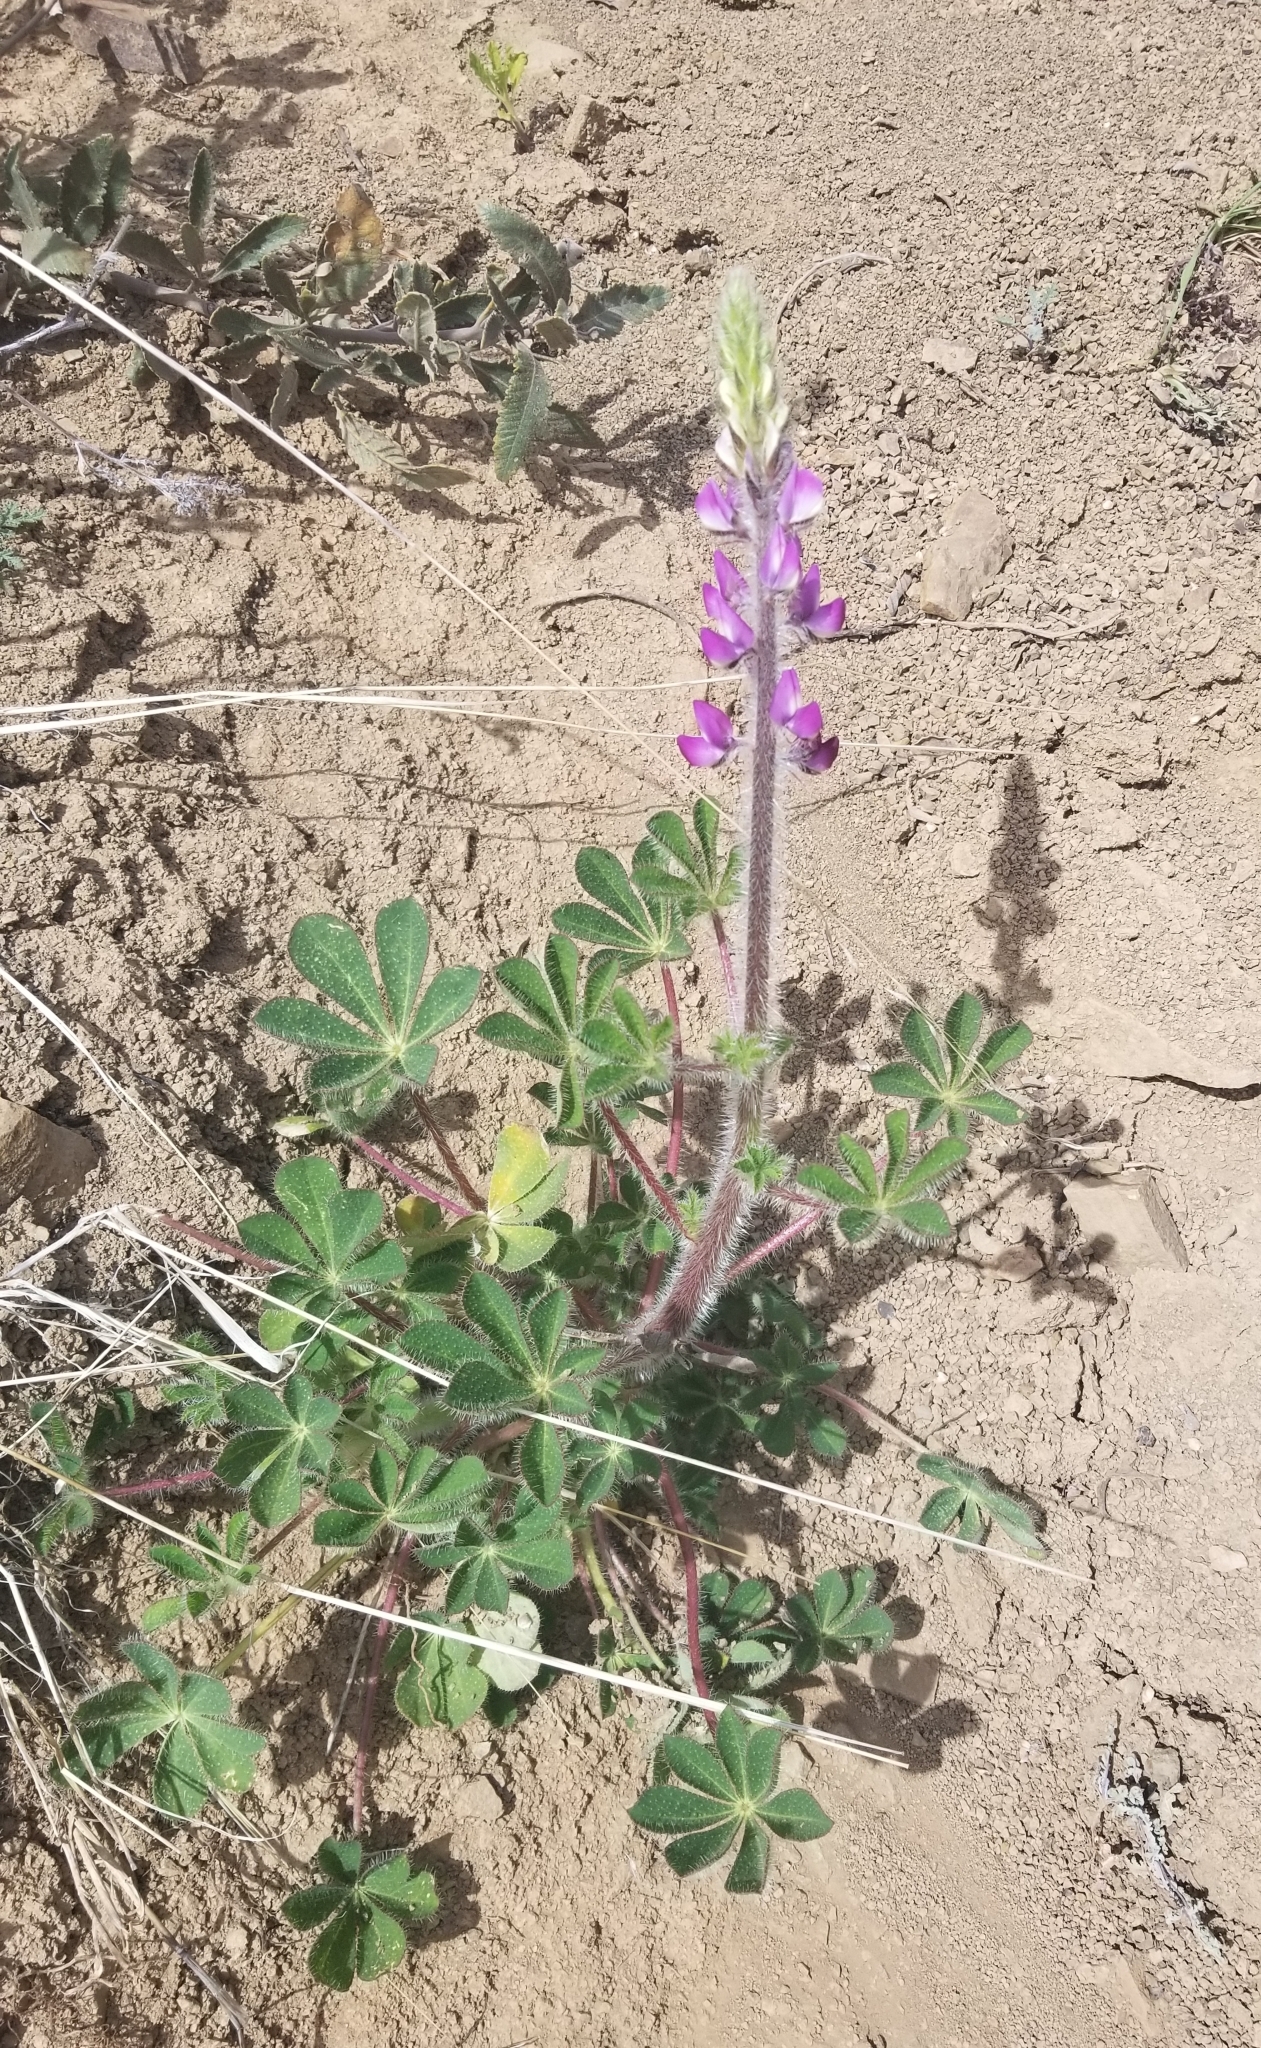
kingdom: Plantae
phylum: Tracheophyta
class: Magnoliopsida
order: Fabales
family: Fabaceae
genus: Lupinus
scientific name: Lupinus hirsutissimus
